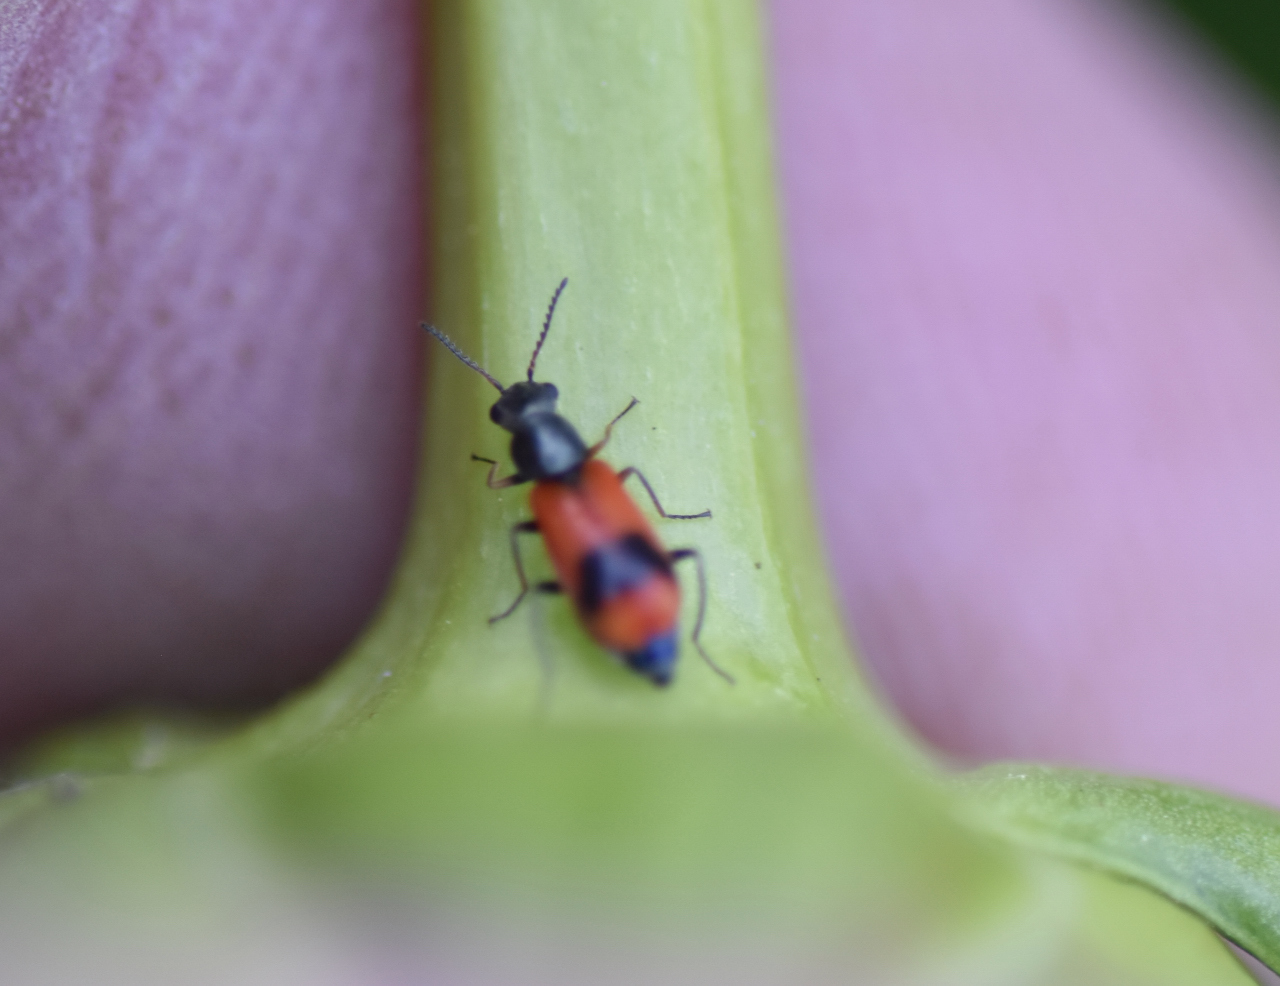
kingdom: Animalia
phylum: Arthropoda
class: Insecta
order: Coleoptera
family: Melyridae
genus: Anthocomus
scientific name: Anthocomus equestris
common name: Black-banded soft-winged flower beetle
